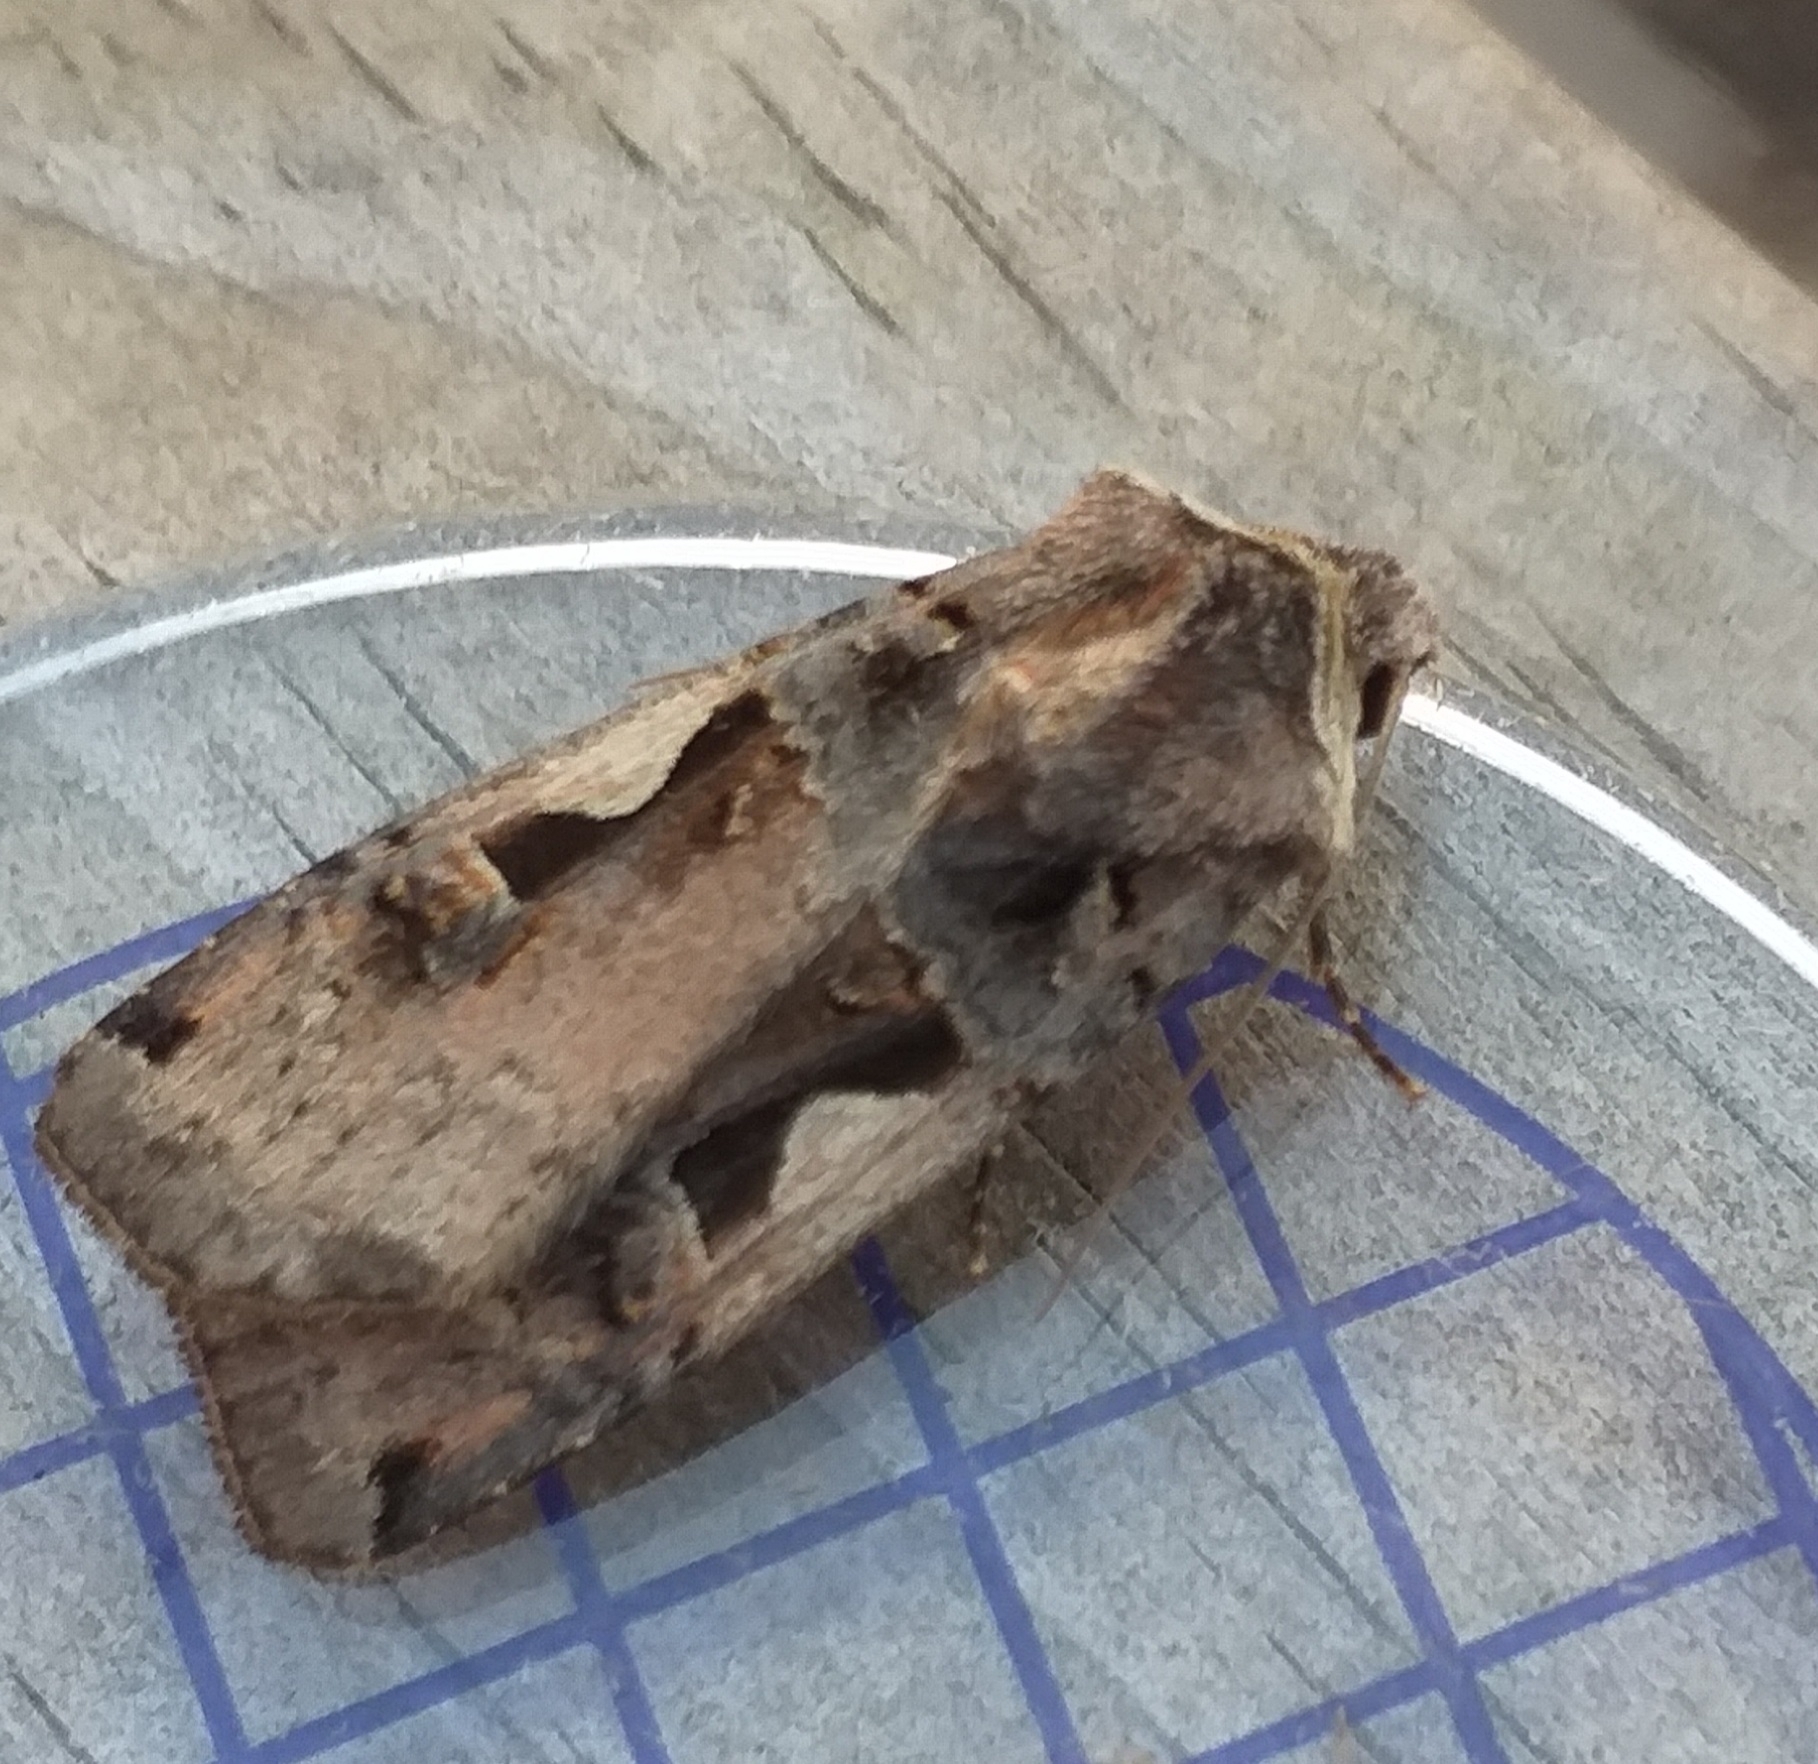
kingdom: Animalia
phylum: Arthropoda
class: Insecta
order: Lepidoptera
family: Noctuidae
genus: Xestia
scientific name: Xestia c-nigrum
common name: Setaceous hebrew character
